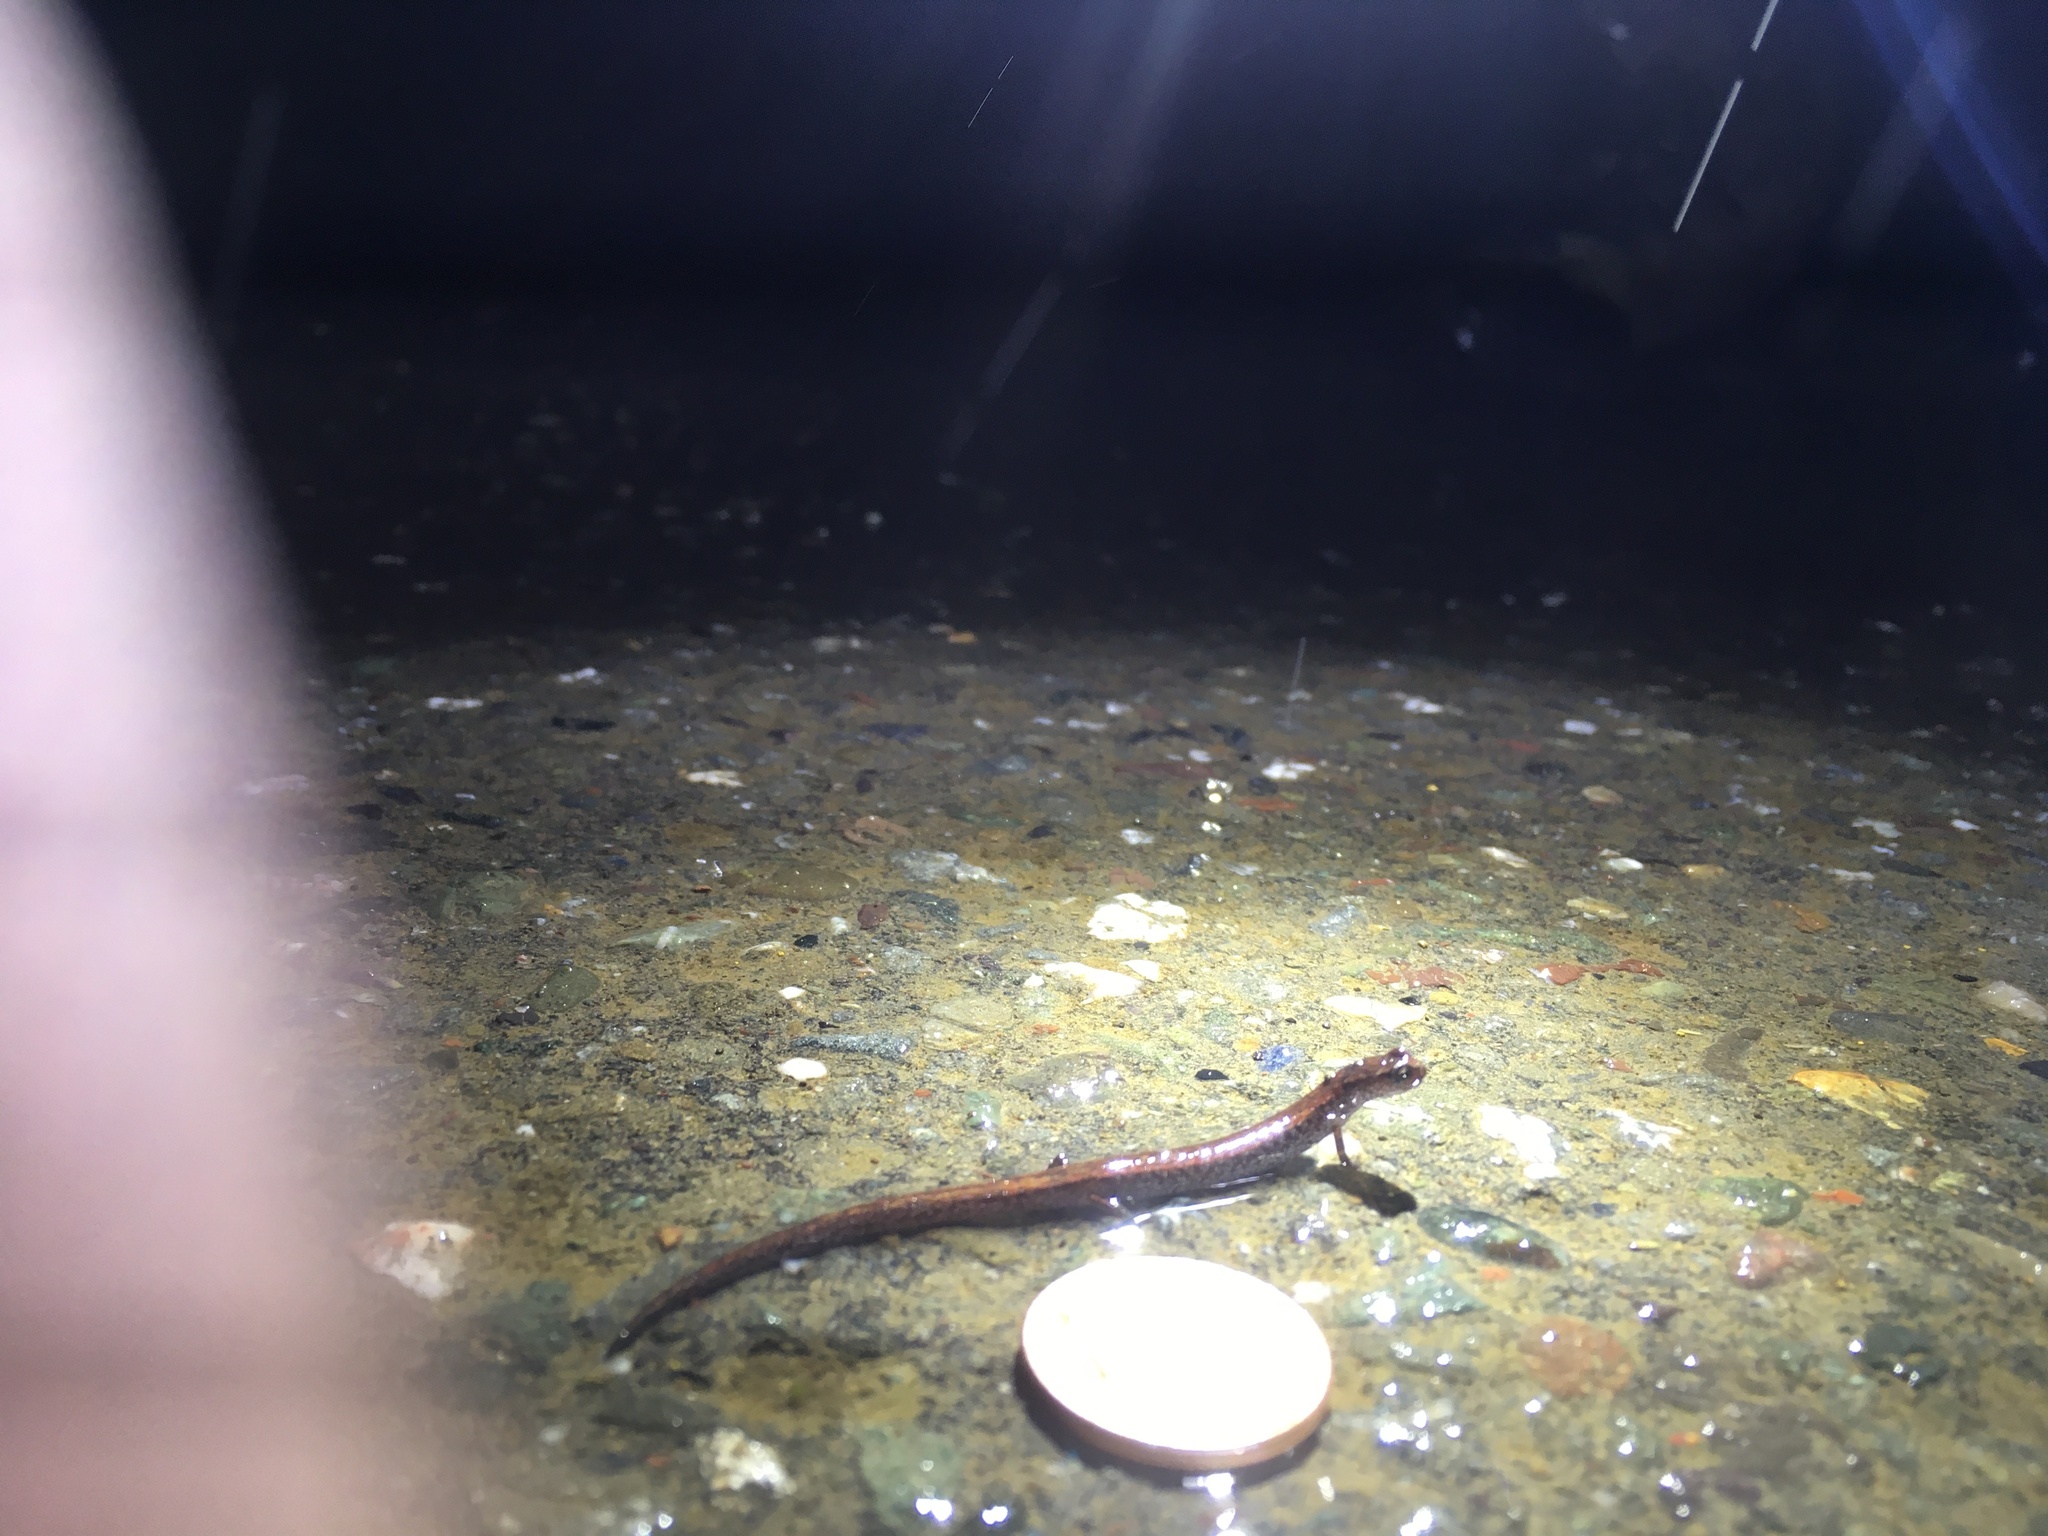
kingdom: Animalia
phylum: Chordata
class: Amphibia
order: Caudata
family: Plethodontidae
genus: Batrachoseps
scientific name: Batrachoseps attenuatus
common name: California slender salamander
